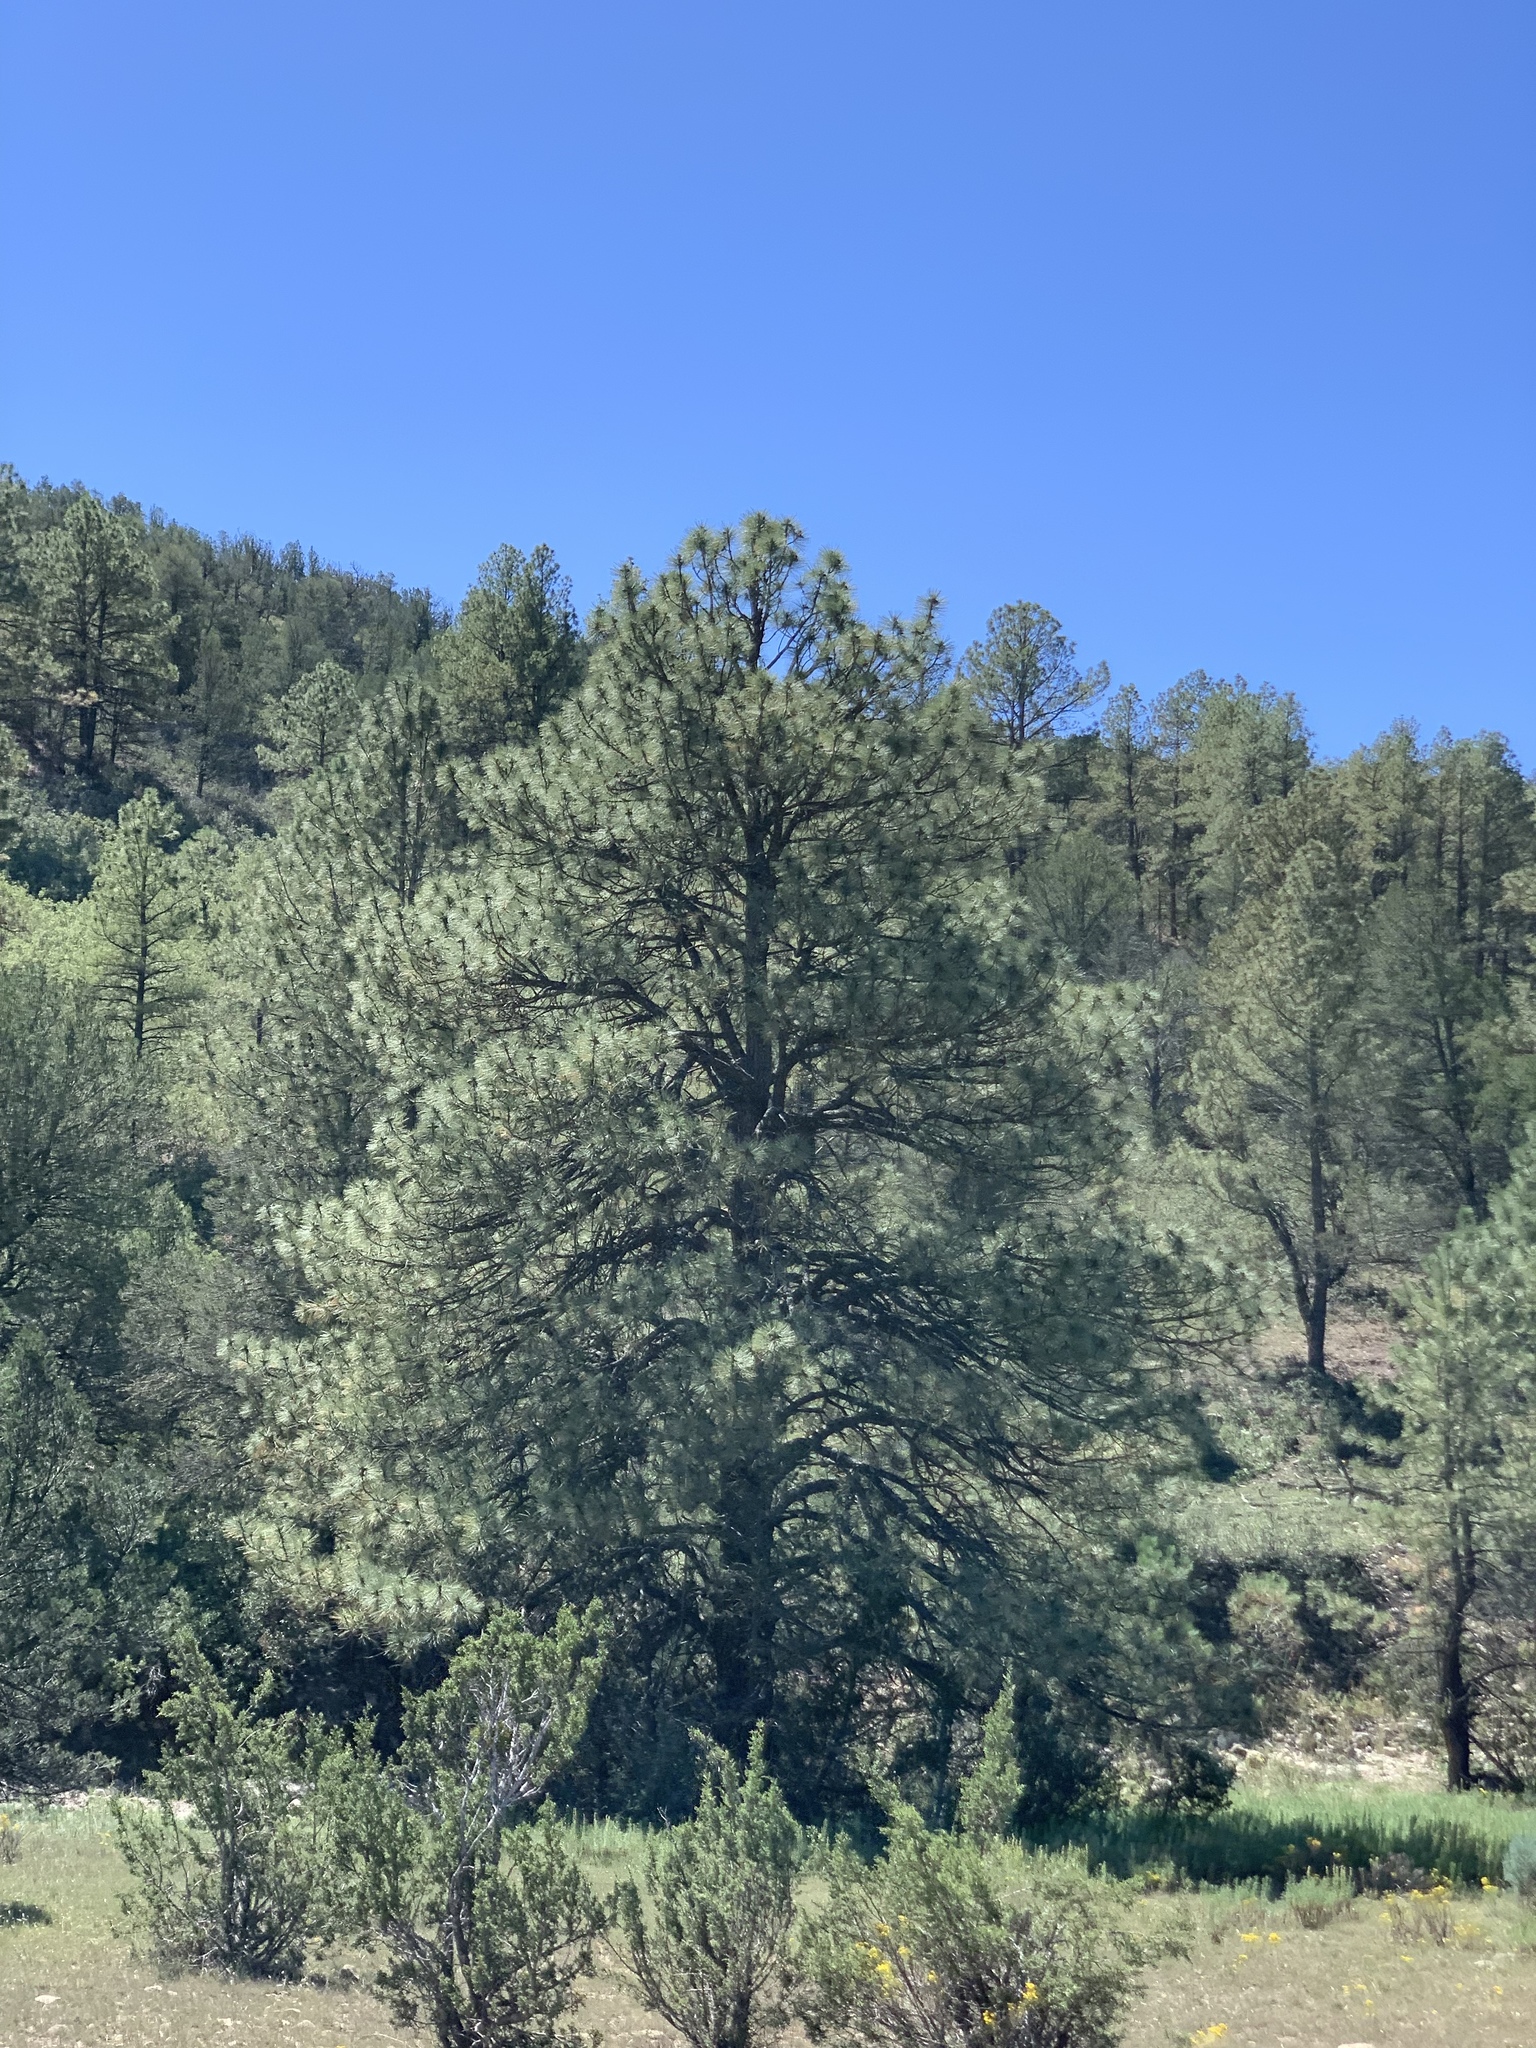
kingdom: Plantae
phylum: Tracheophyta
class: Pinopsida
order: Pinales
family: Pinaceae
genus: Pinus
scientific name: Pinus ponderosa
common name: Western yellow-pine
